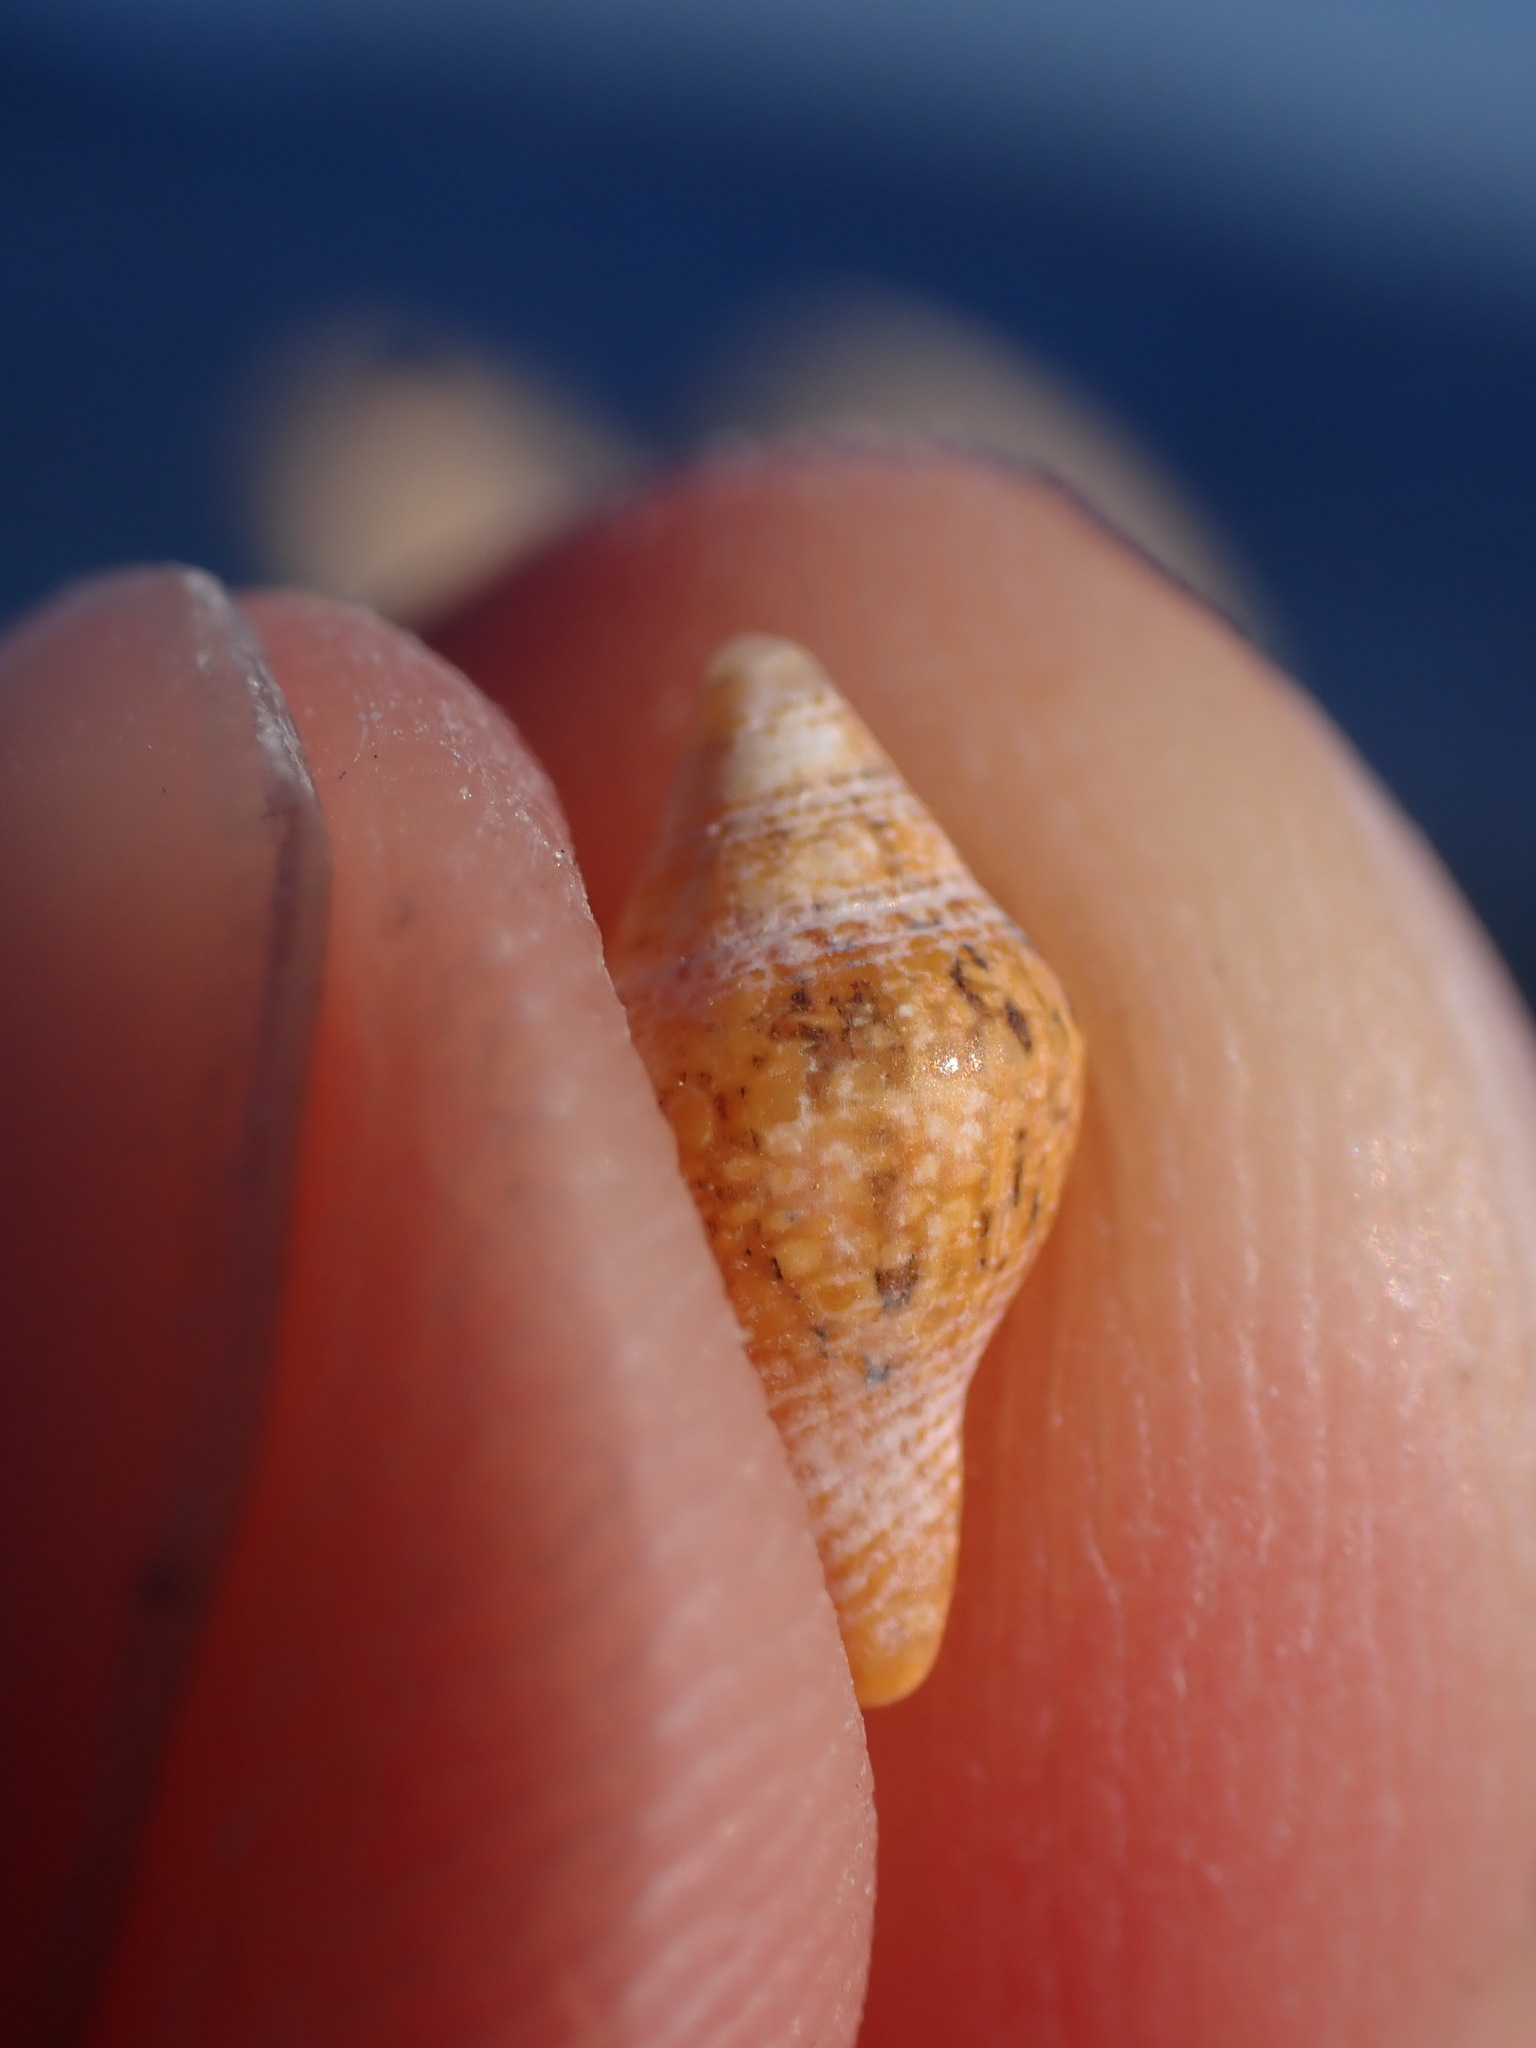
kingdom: Animalia
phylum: Mollusca
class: Gastropoda
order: Neogastropoda
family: Columbellidae
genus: Columbella
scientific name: Columbella rustica
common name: Rustic dove shell
